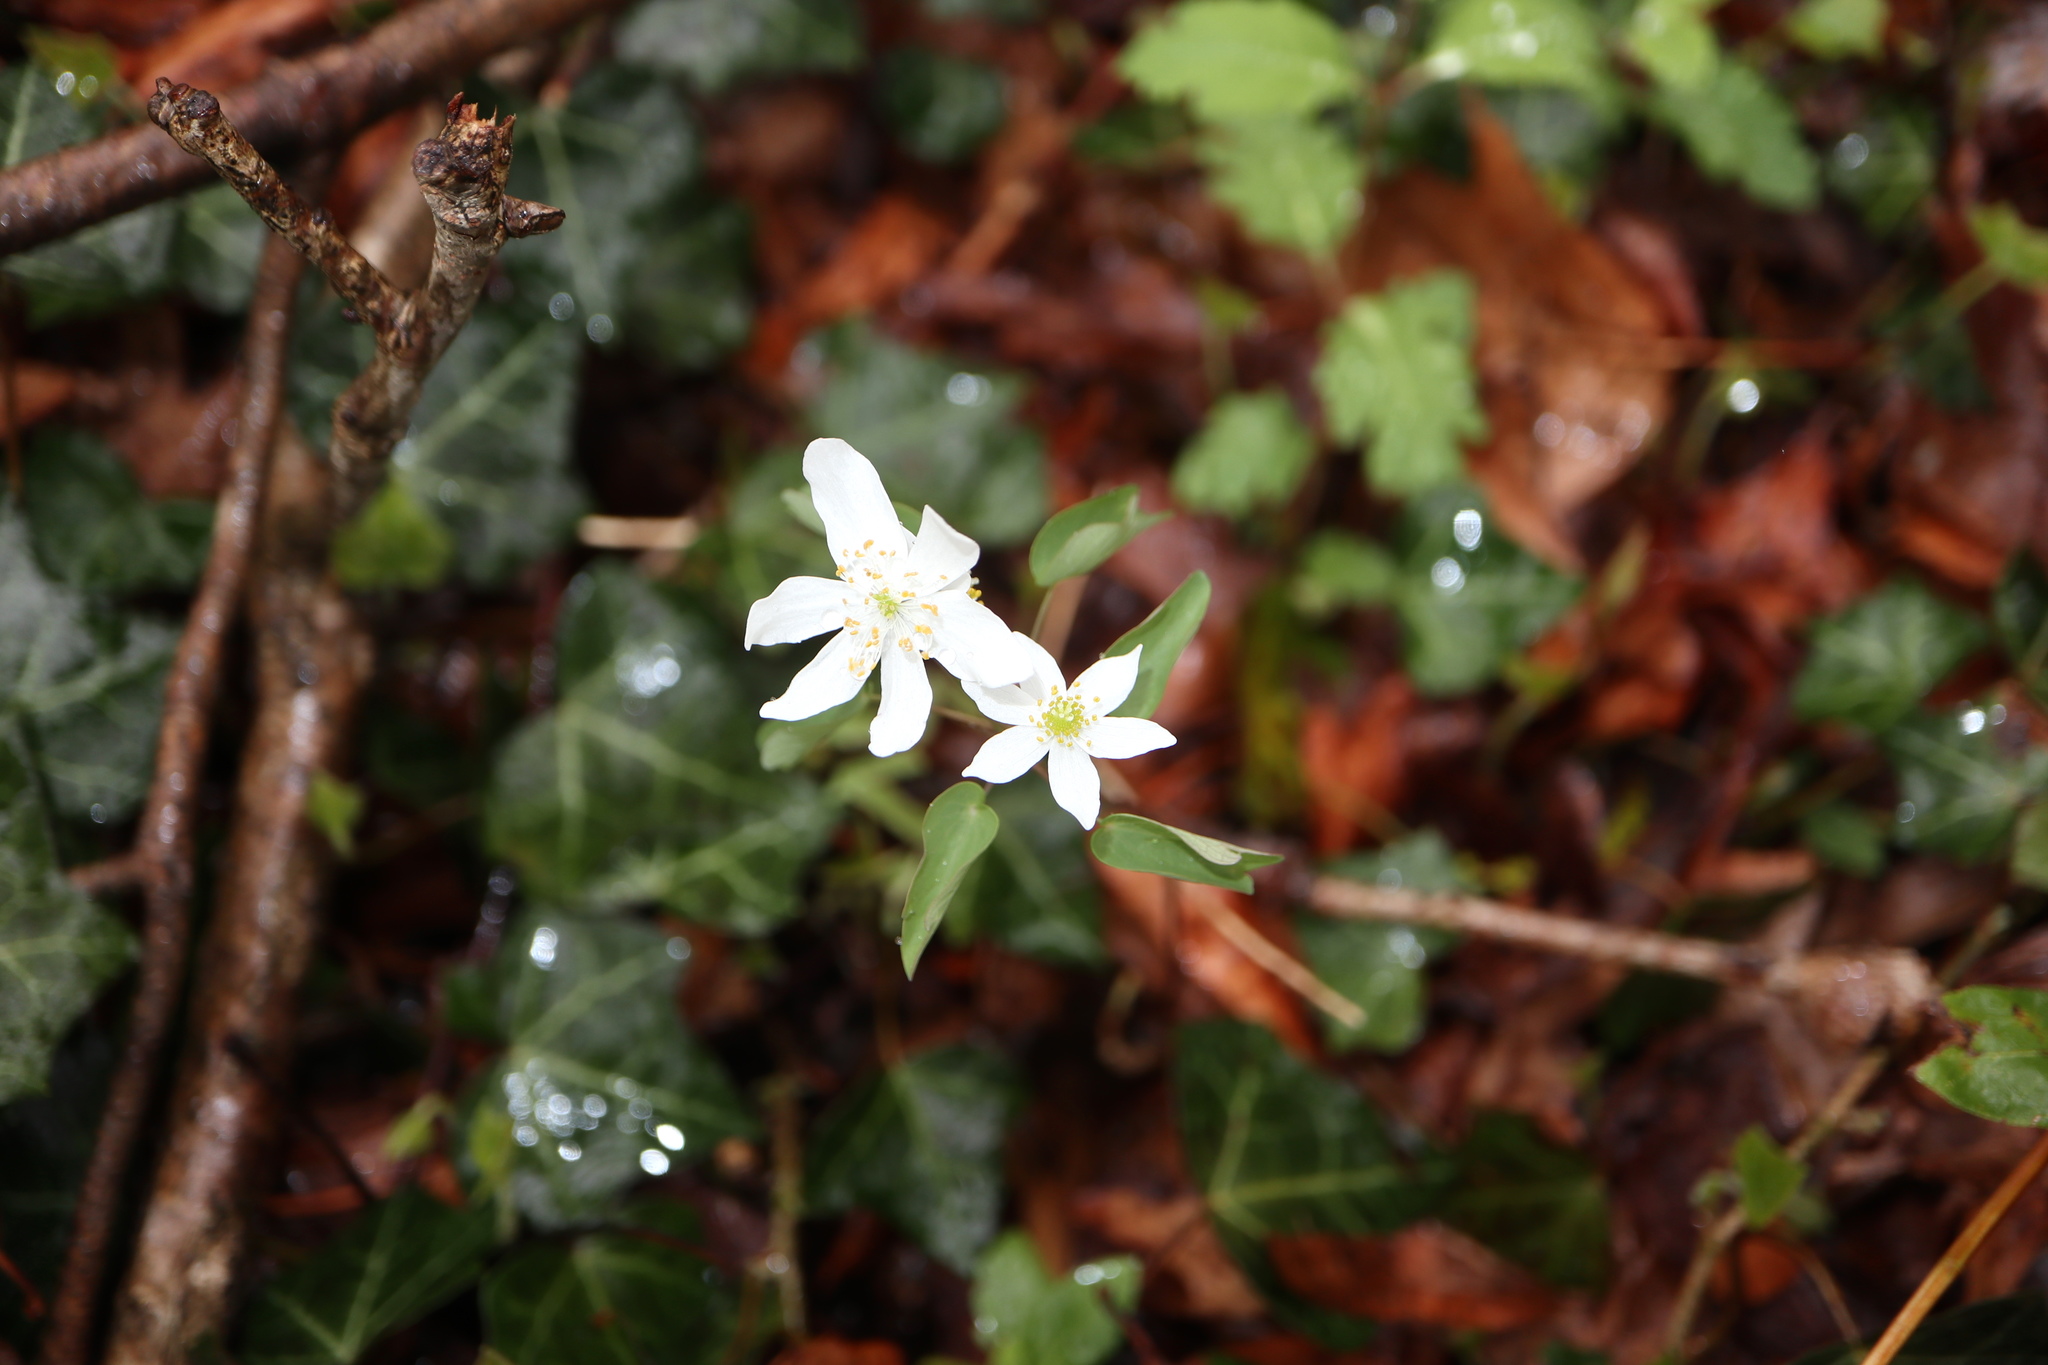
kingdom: Plantae
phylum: Tracheophyta
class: Magnoliopsida
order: Ranunculales
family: Ranunculaceae
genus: Thalictrum
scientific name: Thalictrum thalictroides
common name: Rue-anemone
